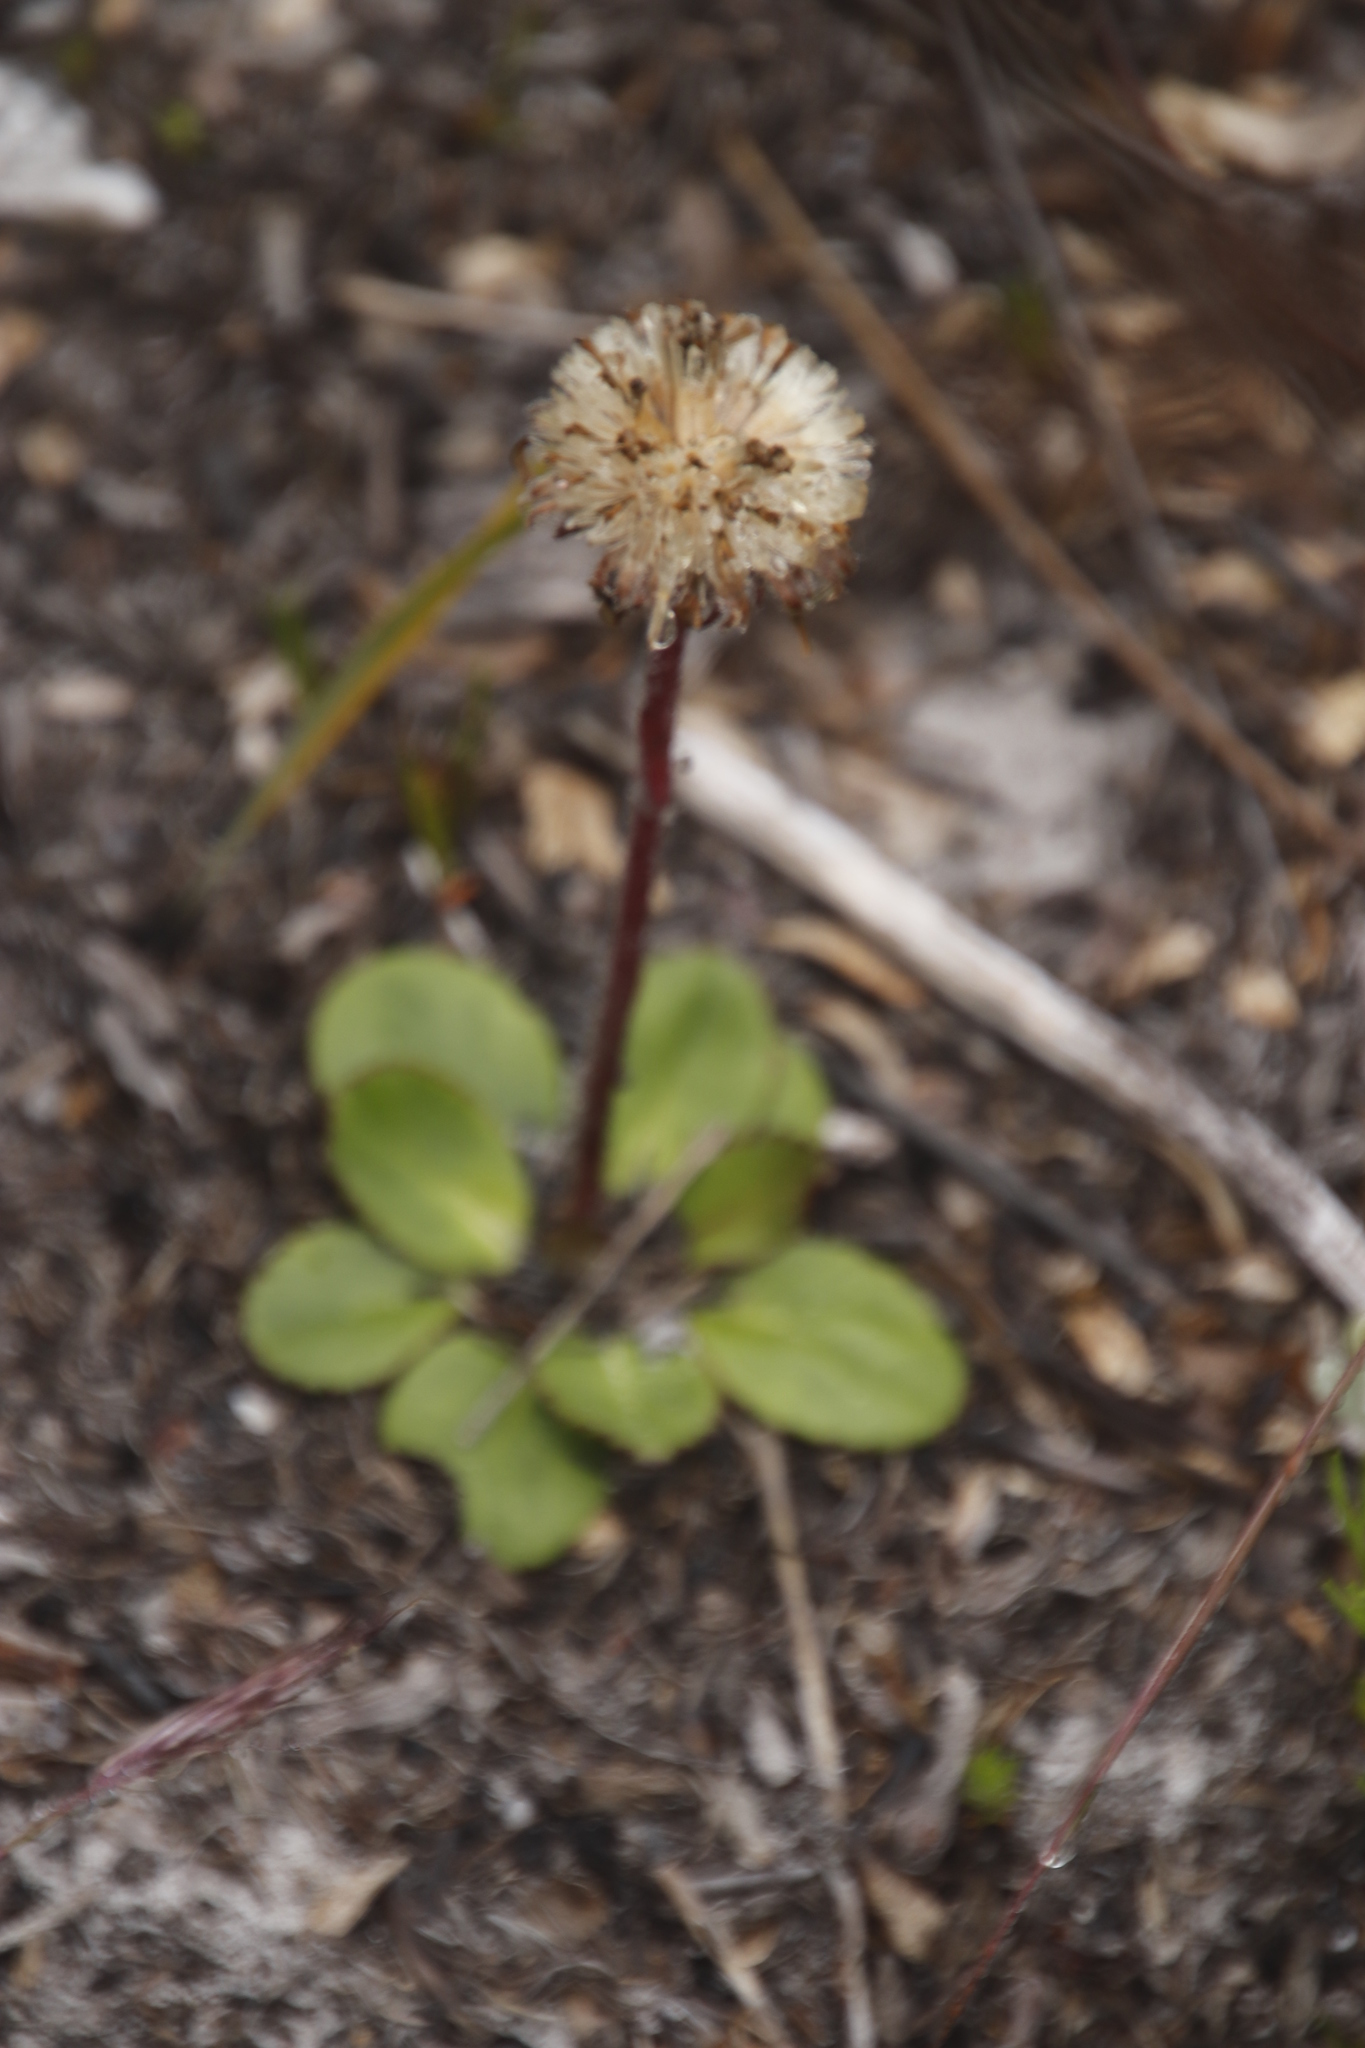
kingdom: Plantae
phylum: Tracheophyta
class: Magnoliopsida
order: Asterales
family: Asteraceae
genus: Zyrphelis
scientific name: Zyrphelis crenata
